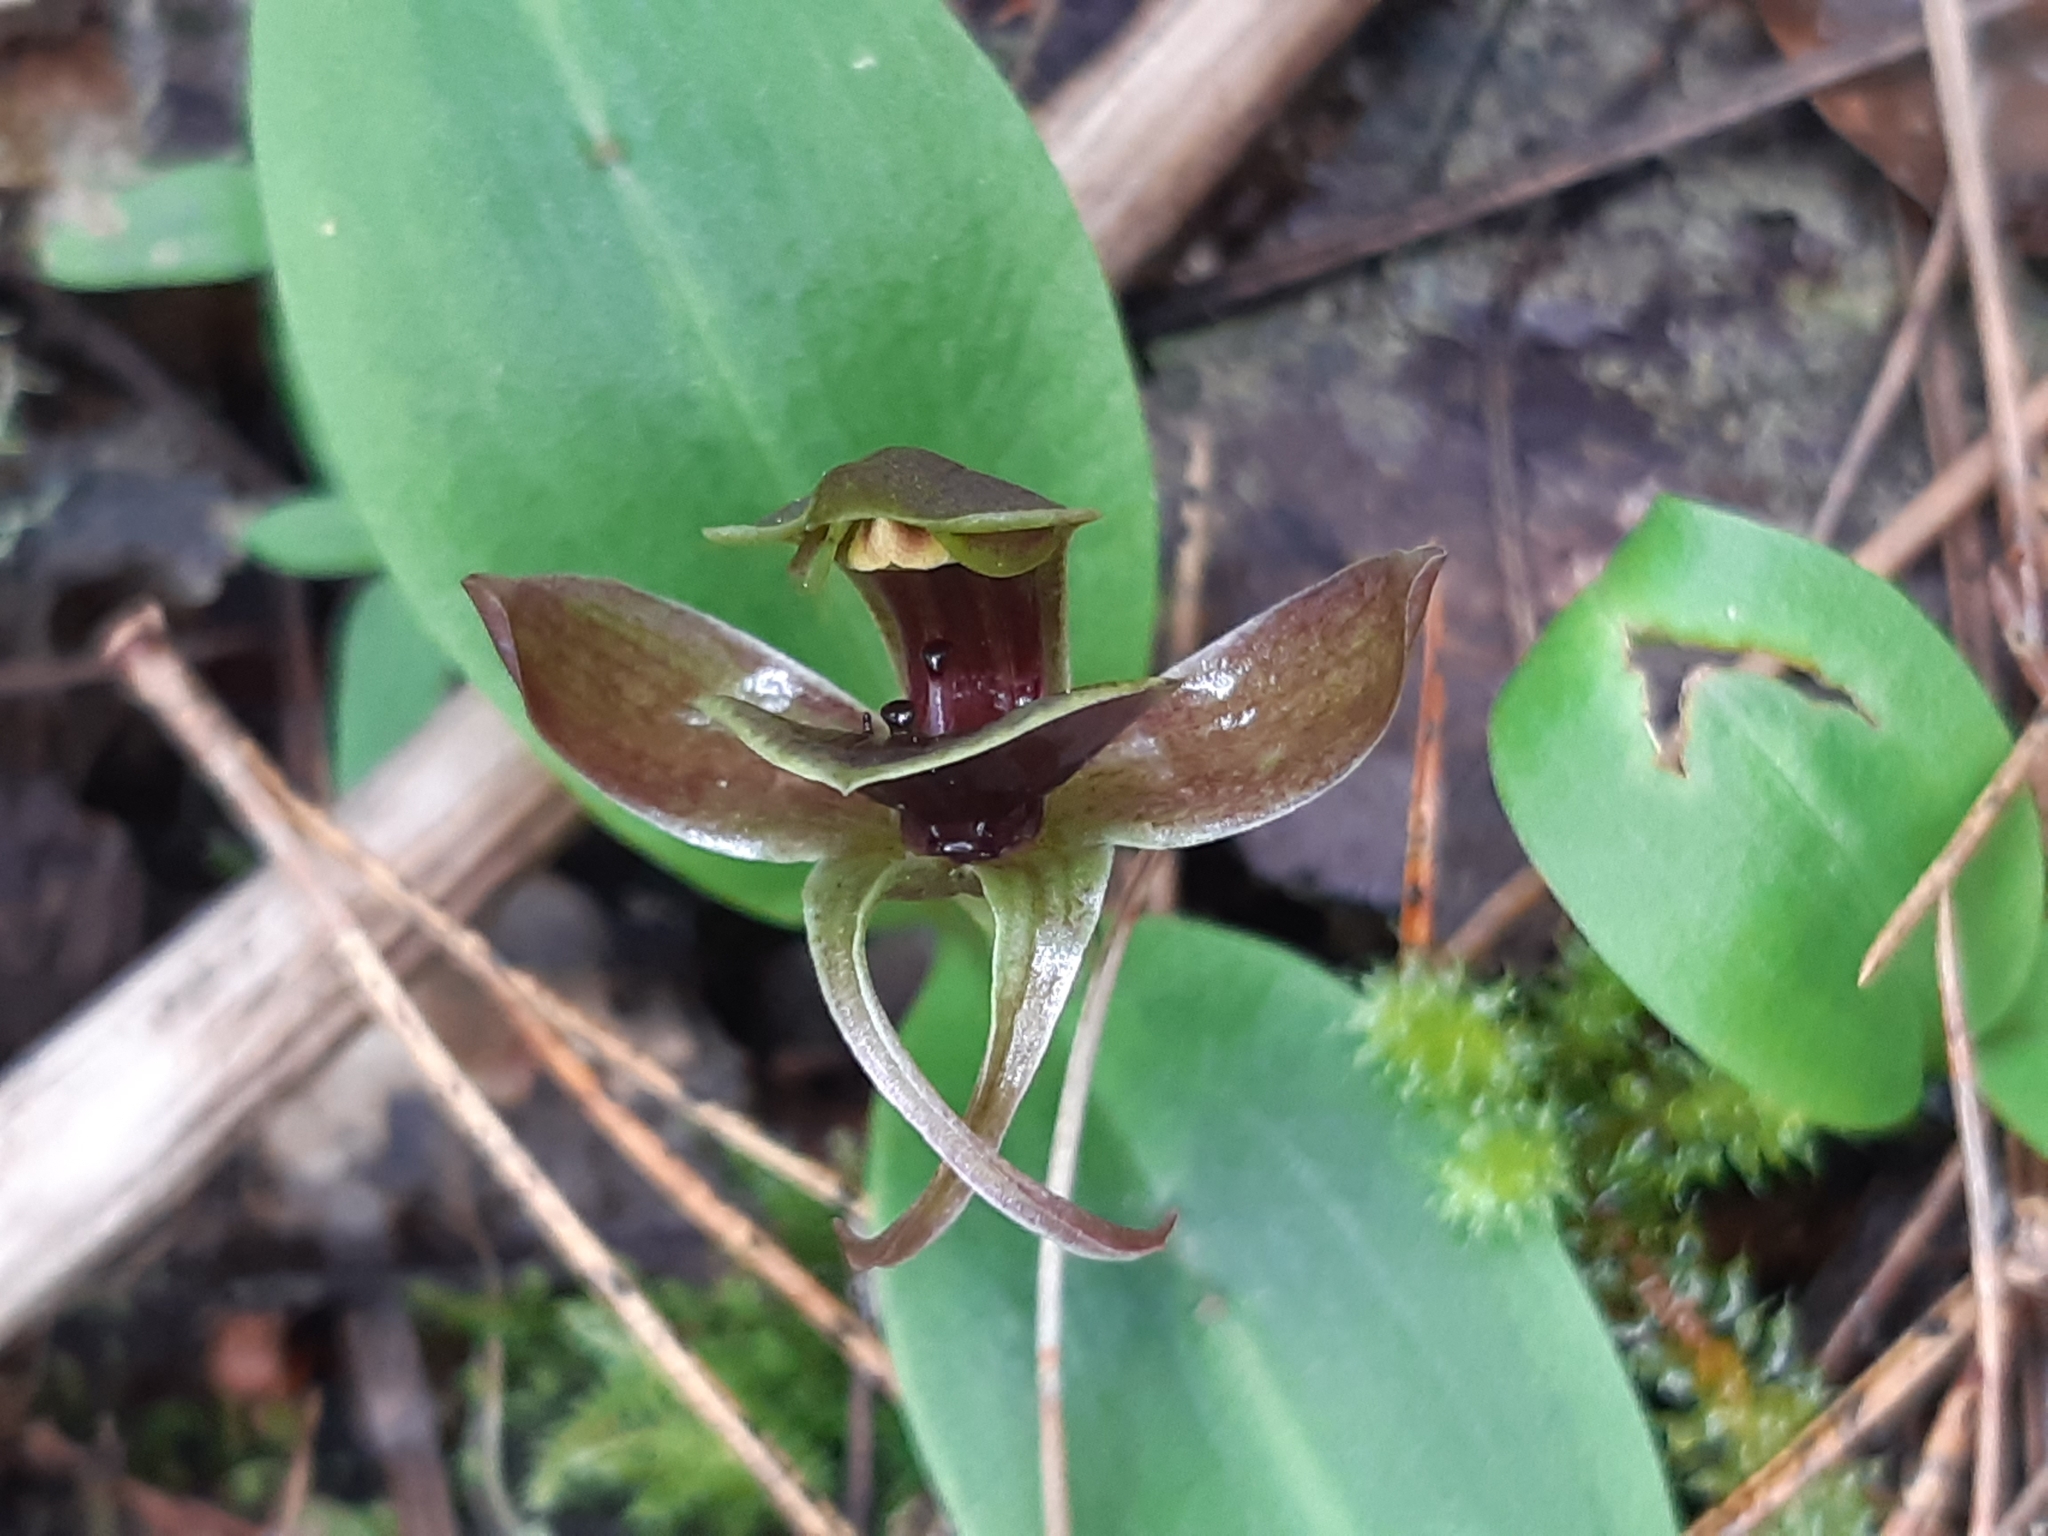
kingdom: Plantae
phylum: Tracheophyta
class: Liliopsida
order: Asparagales
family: Orchidaceae
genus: Chiloglottis
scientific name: Chiloglottis valida
